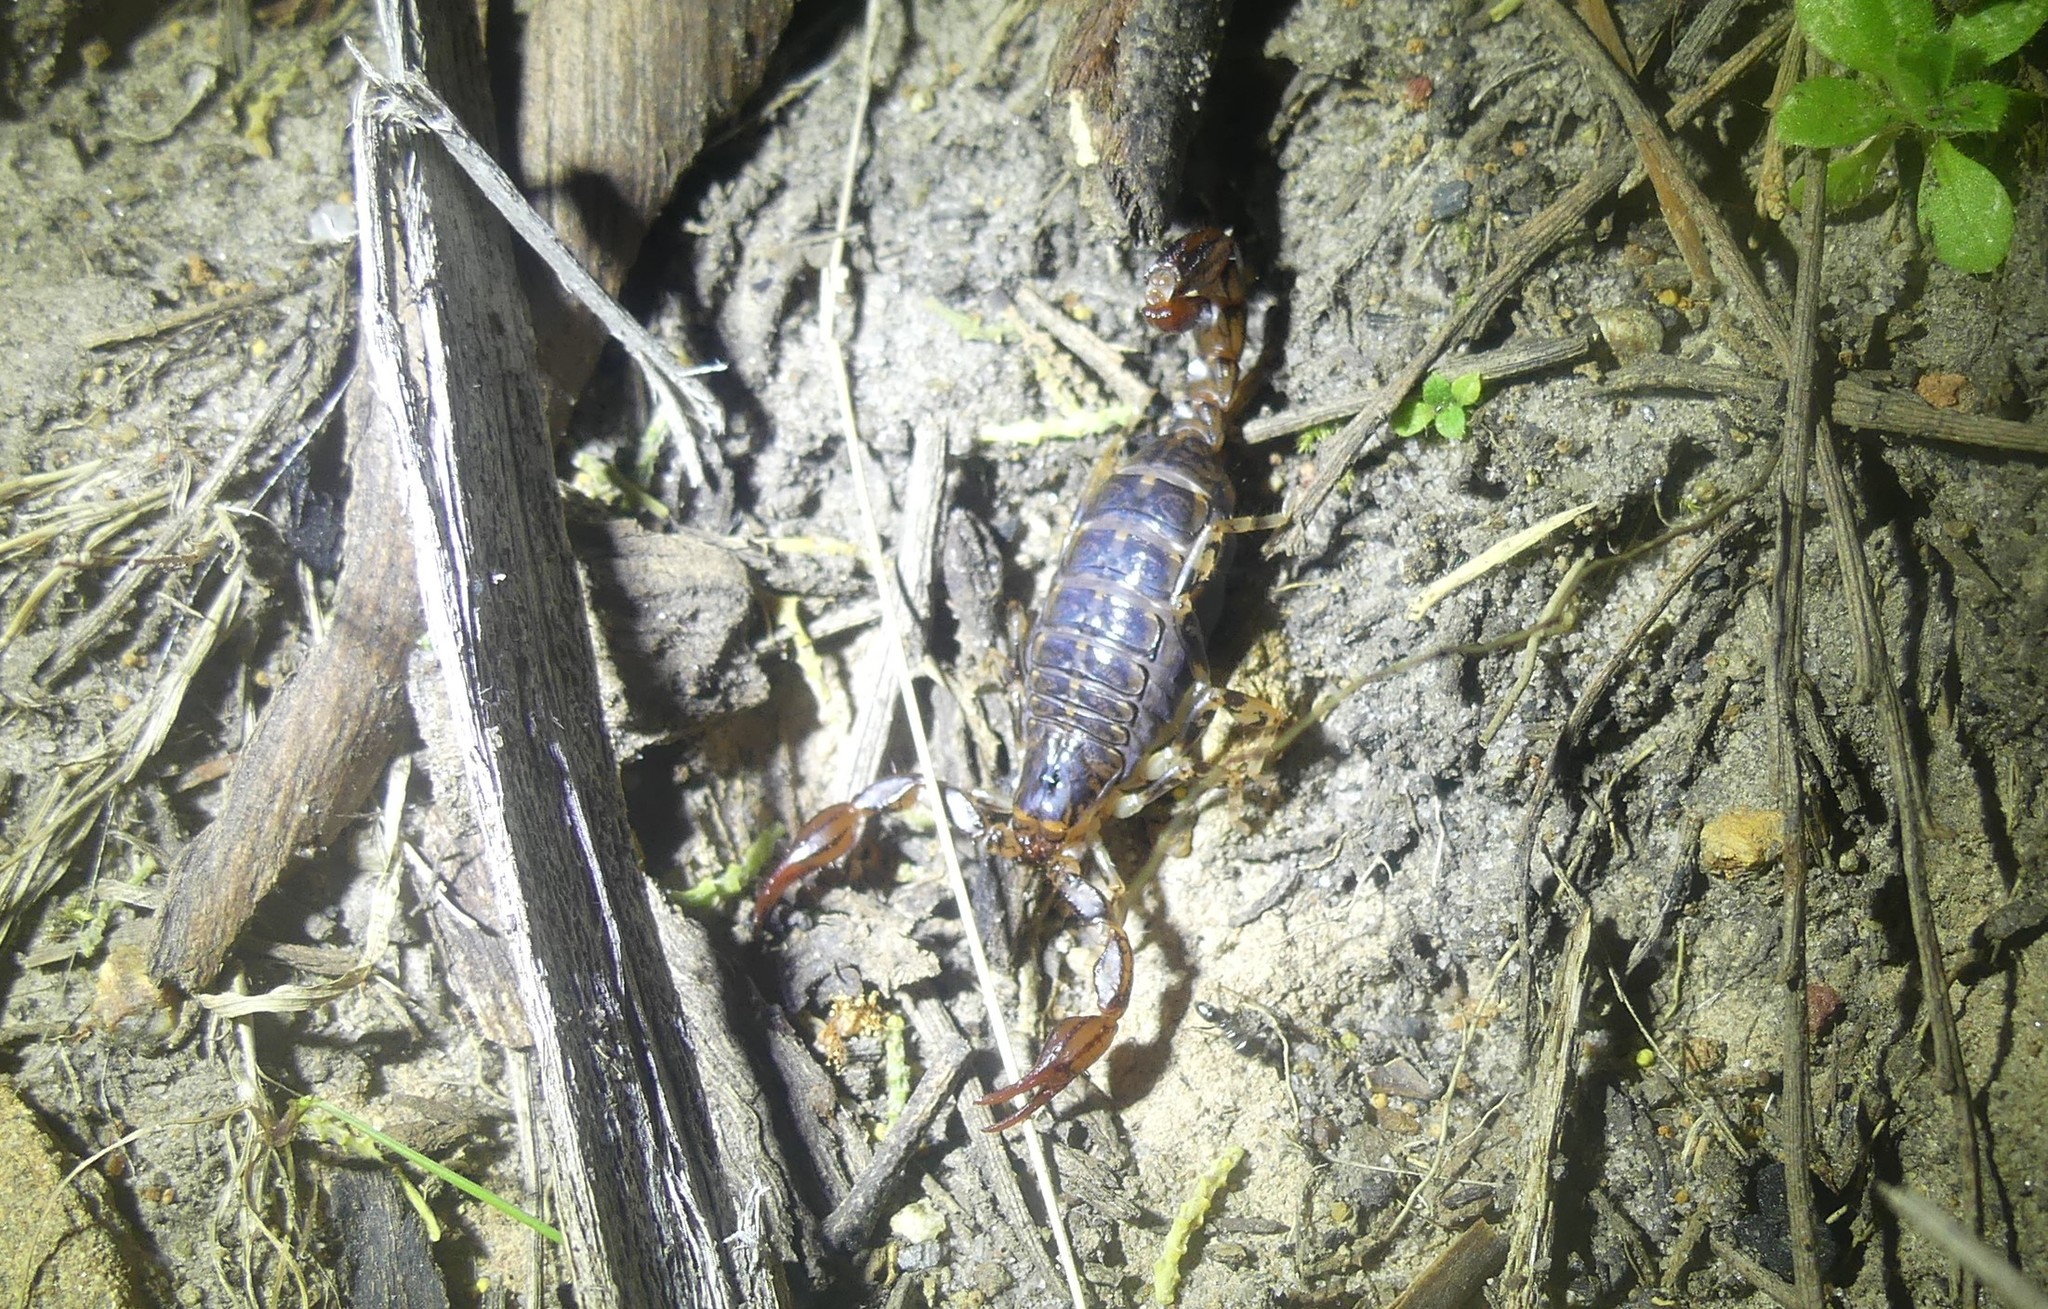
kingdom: Animalia
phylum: Arthropoda
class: Arachnida
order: Scorpiones
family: Bothriuridae
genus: Cercophonius
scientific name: Cercophonius squama
